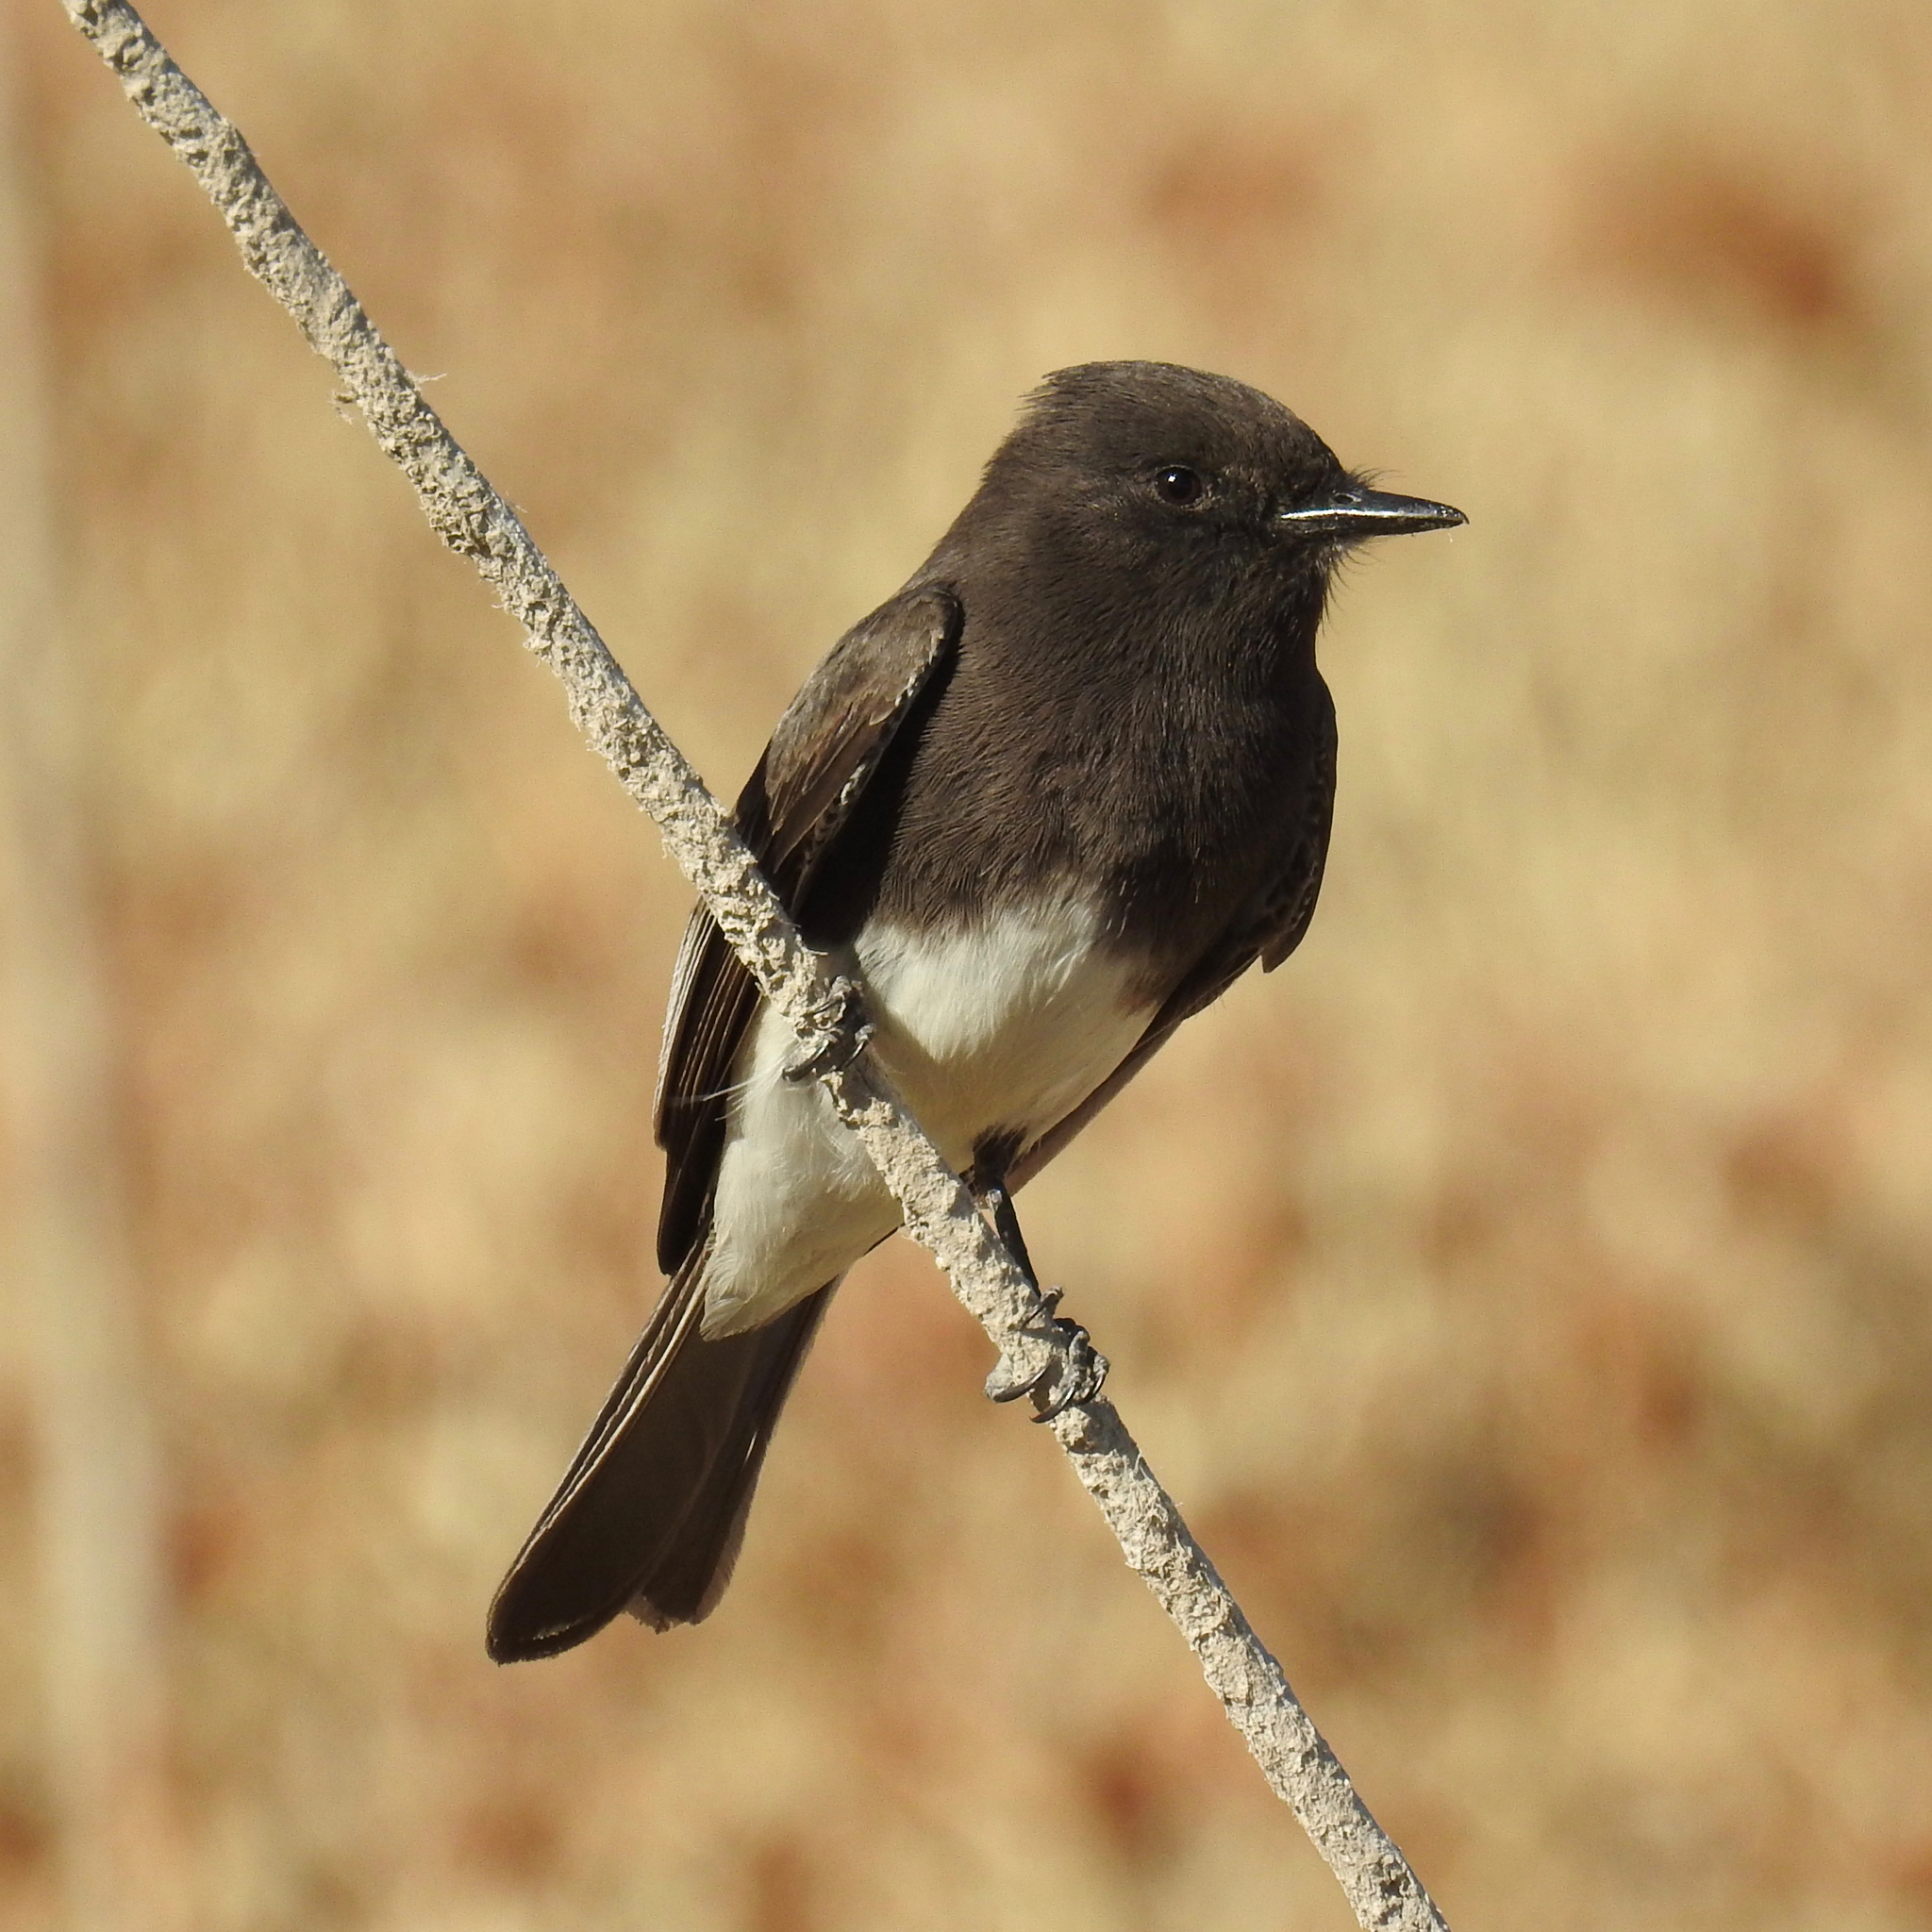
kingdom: Animalia
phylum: Chordata
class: Aves
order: Passeriformes
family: Tyrannidae
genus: Sayornis
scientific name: Sayornis nigricans
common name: Black phoebe
